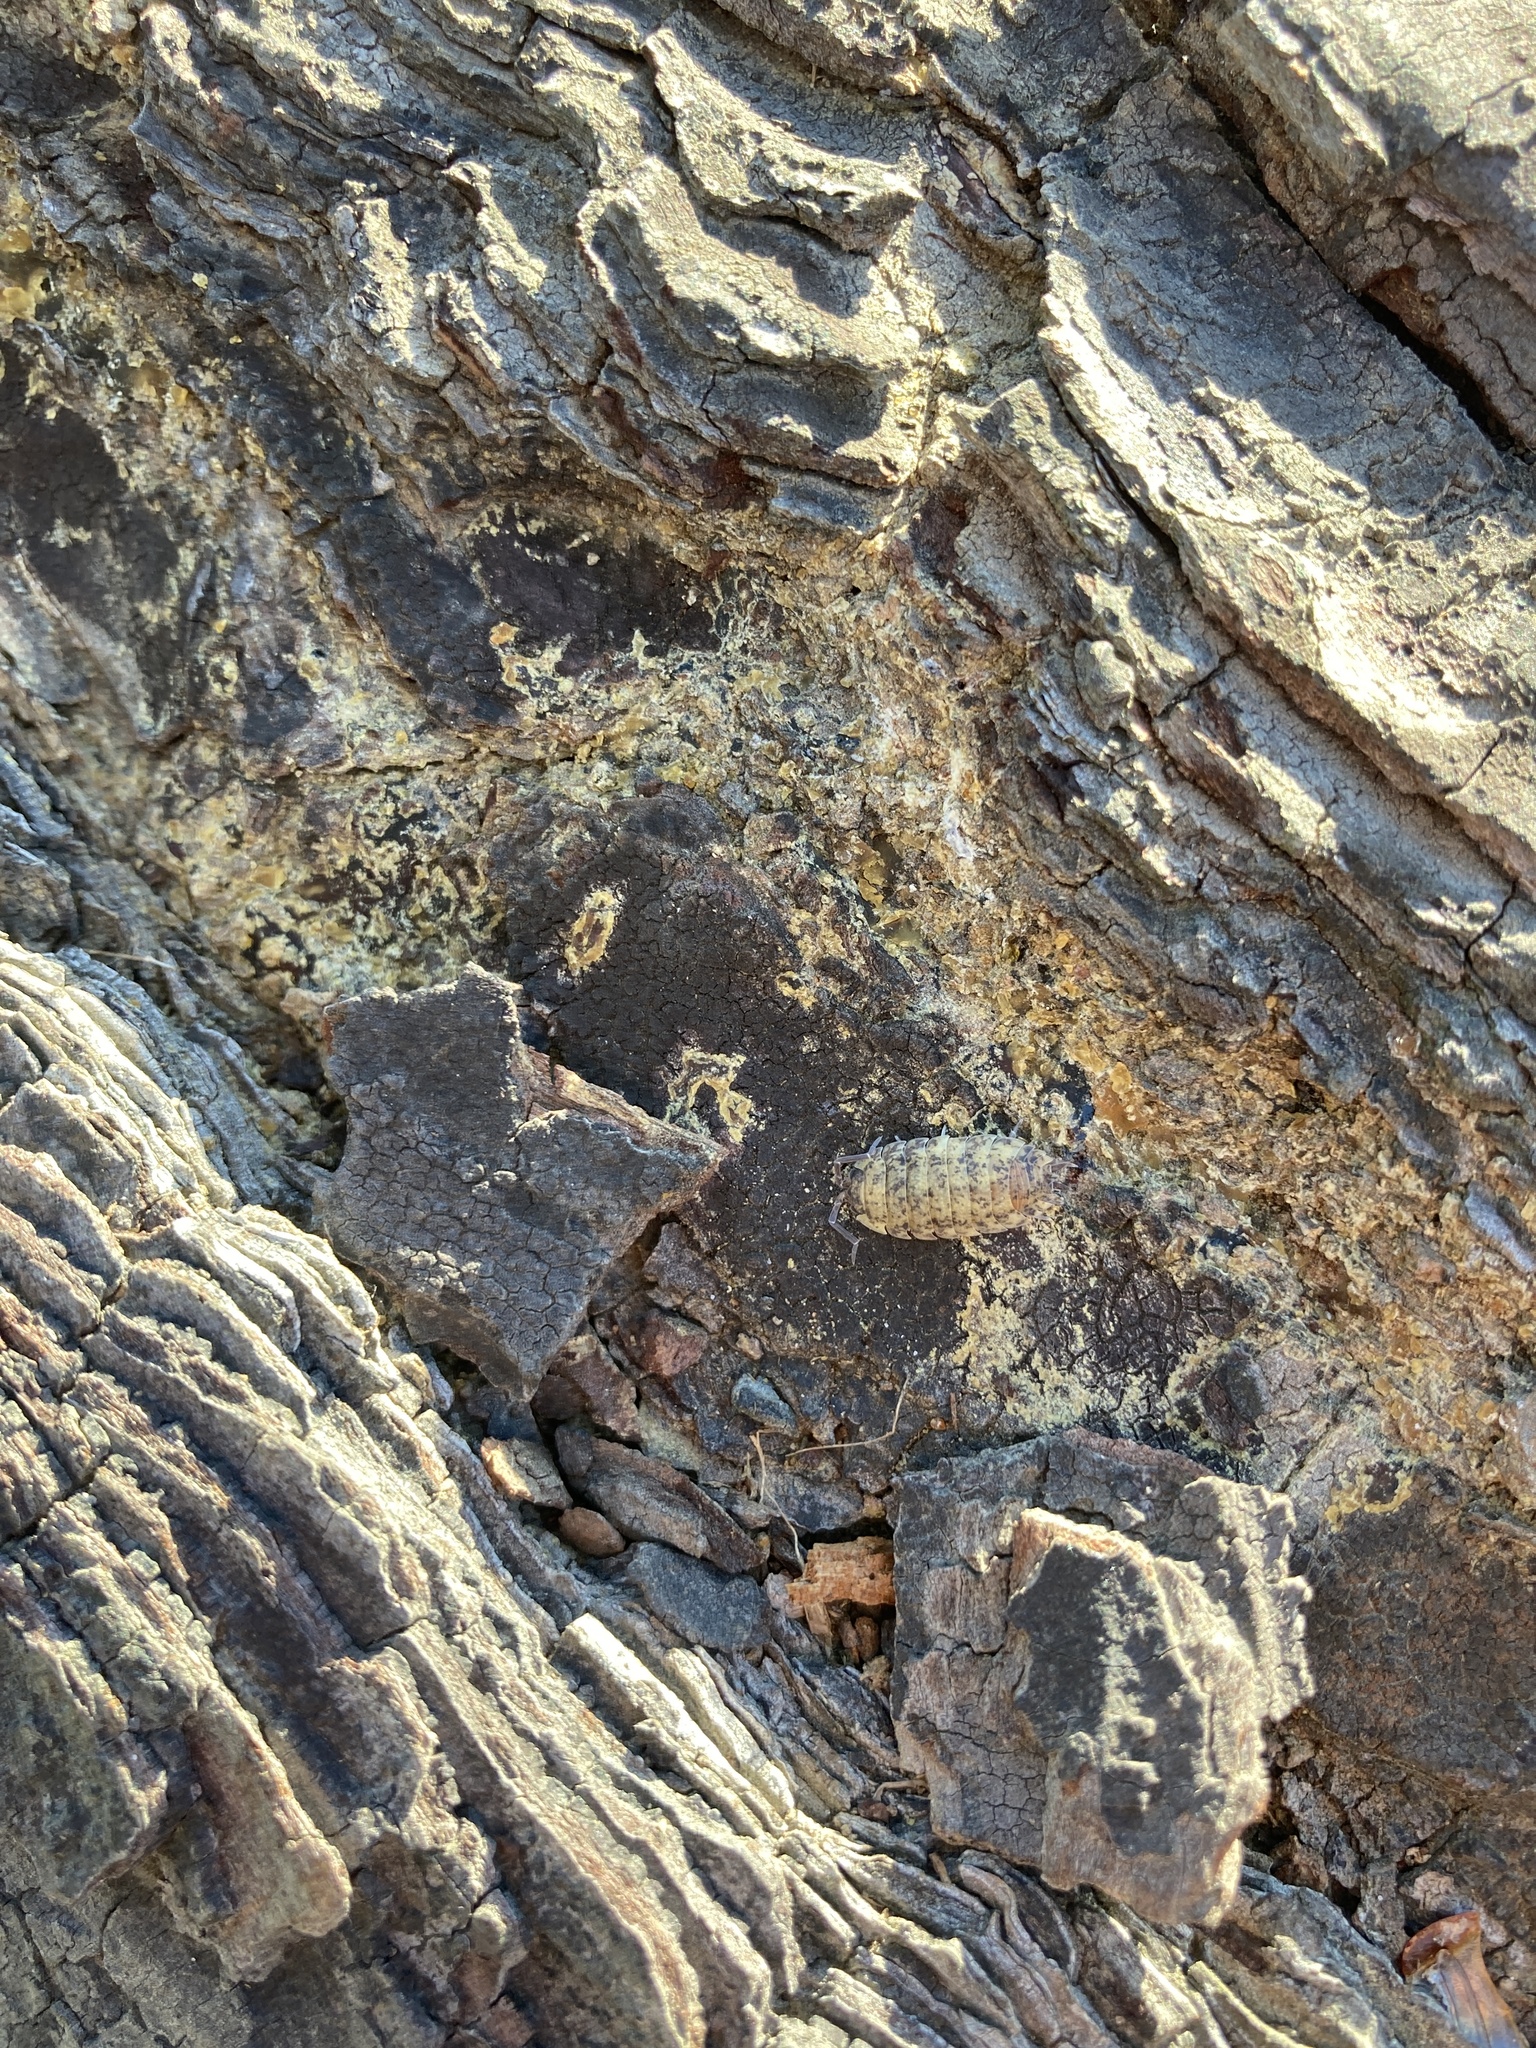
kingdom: Animalia
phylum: Arthropoda
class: Malacostraca
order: Isopoda
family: Porcellionidae
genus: Porcellio
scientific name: Porcellio scaber
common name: Common rough woodlouse
